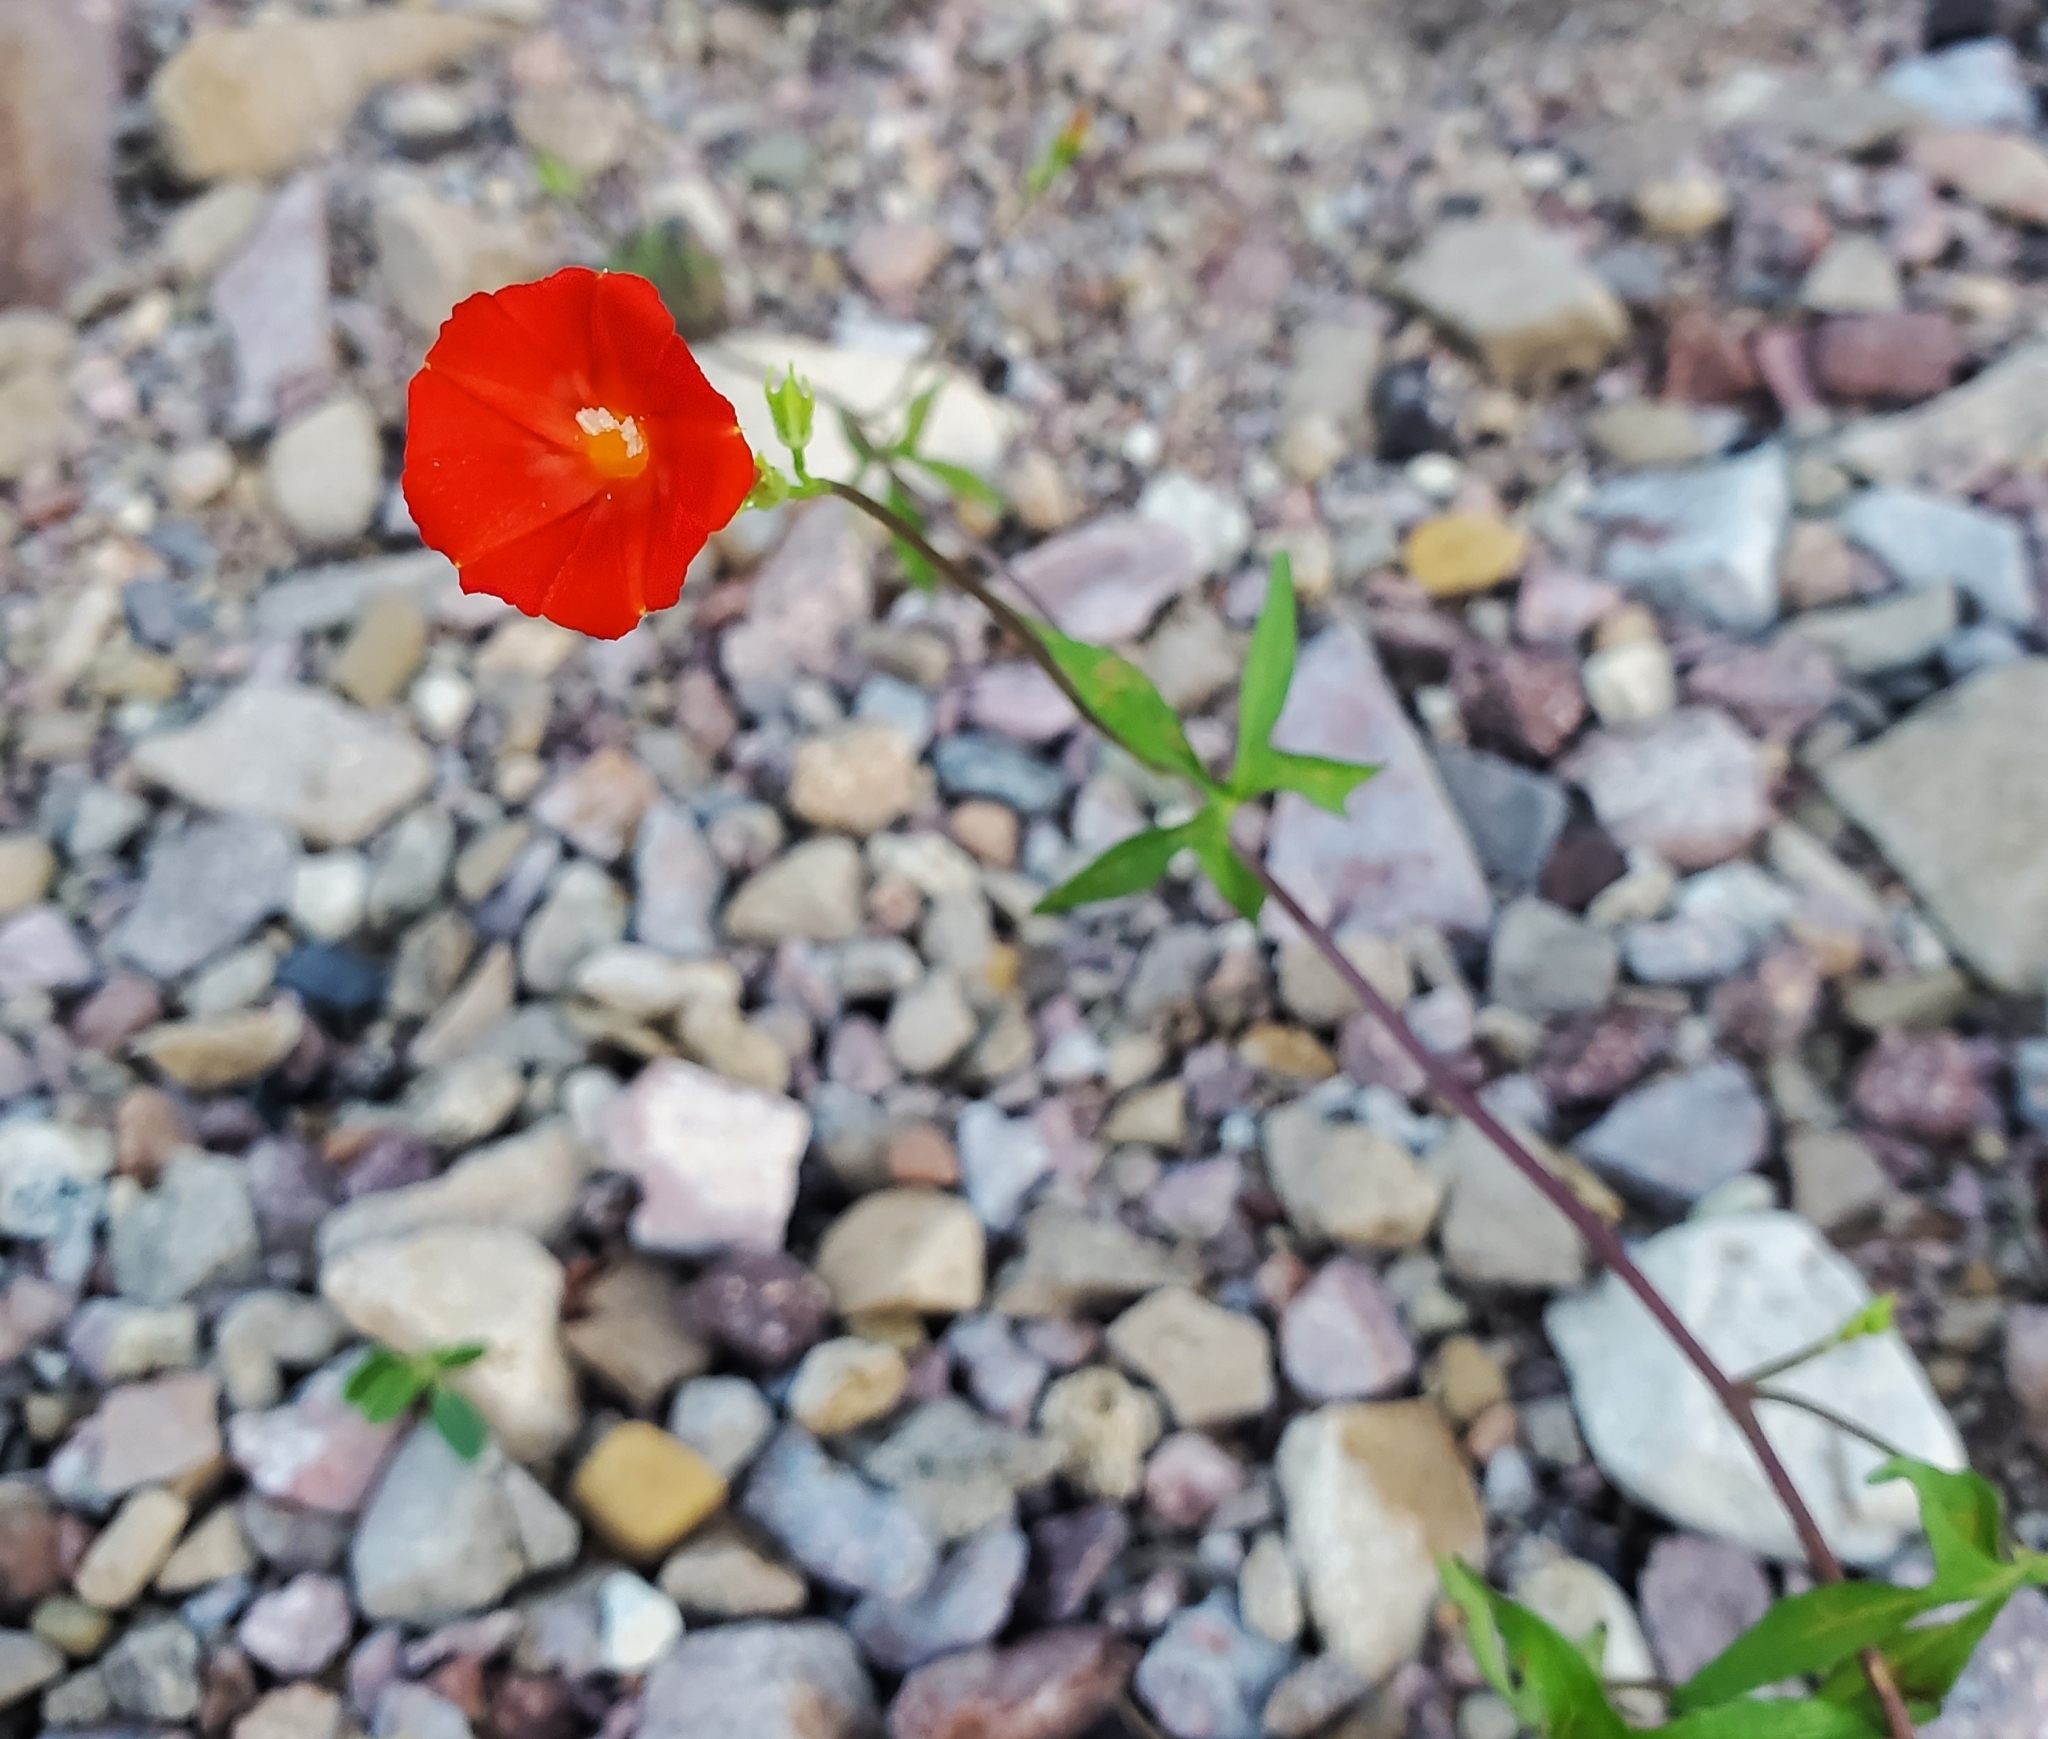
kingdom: Plantae
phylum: Tracheophyta
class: Magnoliopsida
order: Solanales
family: Convolvulaceae
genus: Ipomoea
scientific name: Ipomoea cristulata
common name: Trans-pecos morning-glory
